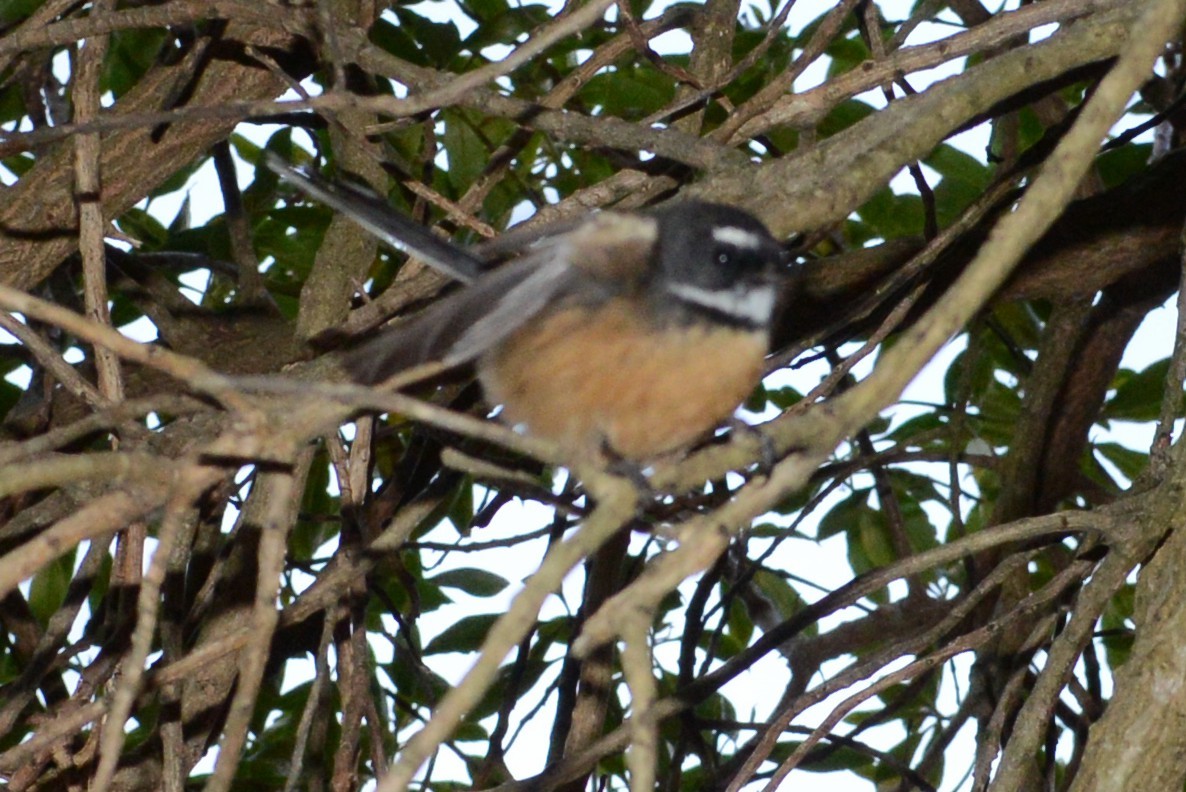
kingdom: Animalia
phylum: Chordata
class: Aves
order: Passeriformes
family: Rhipiduridae
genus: Rhipidura
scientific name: Rhipidura fuliginosa
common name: New zealand fantail
